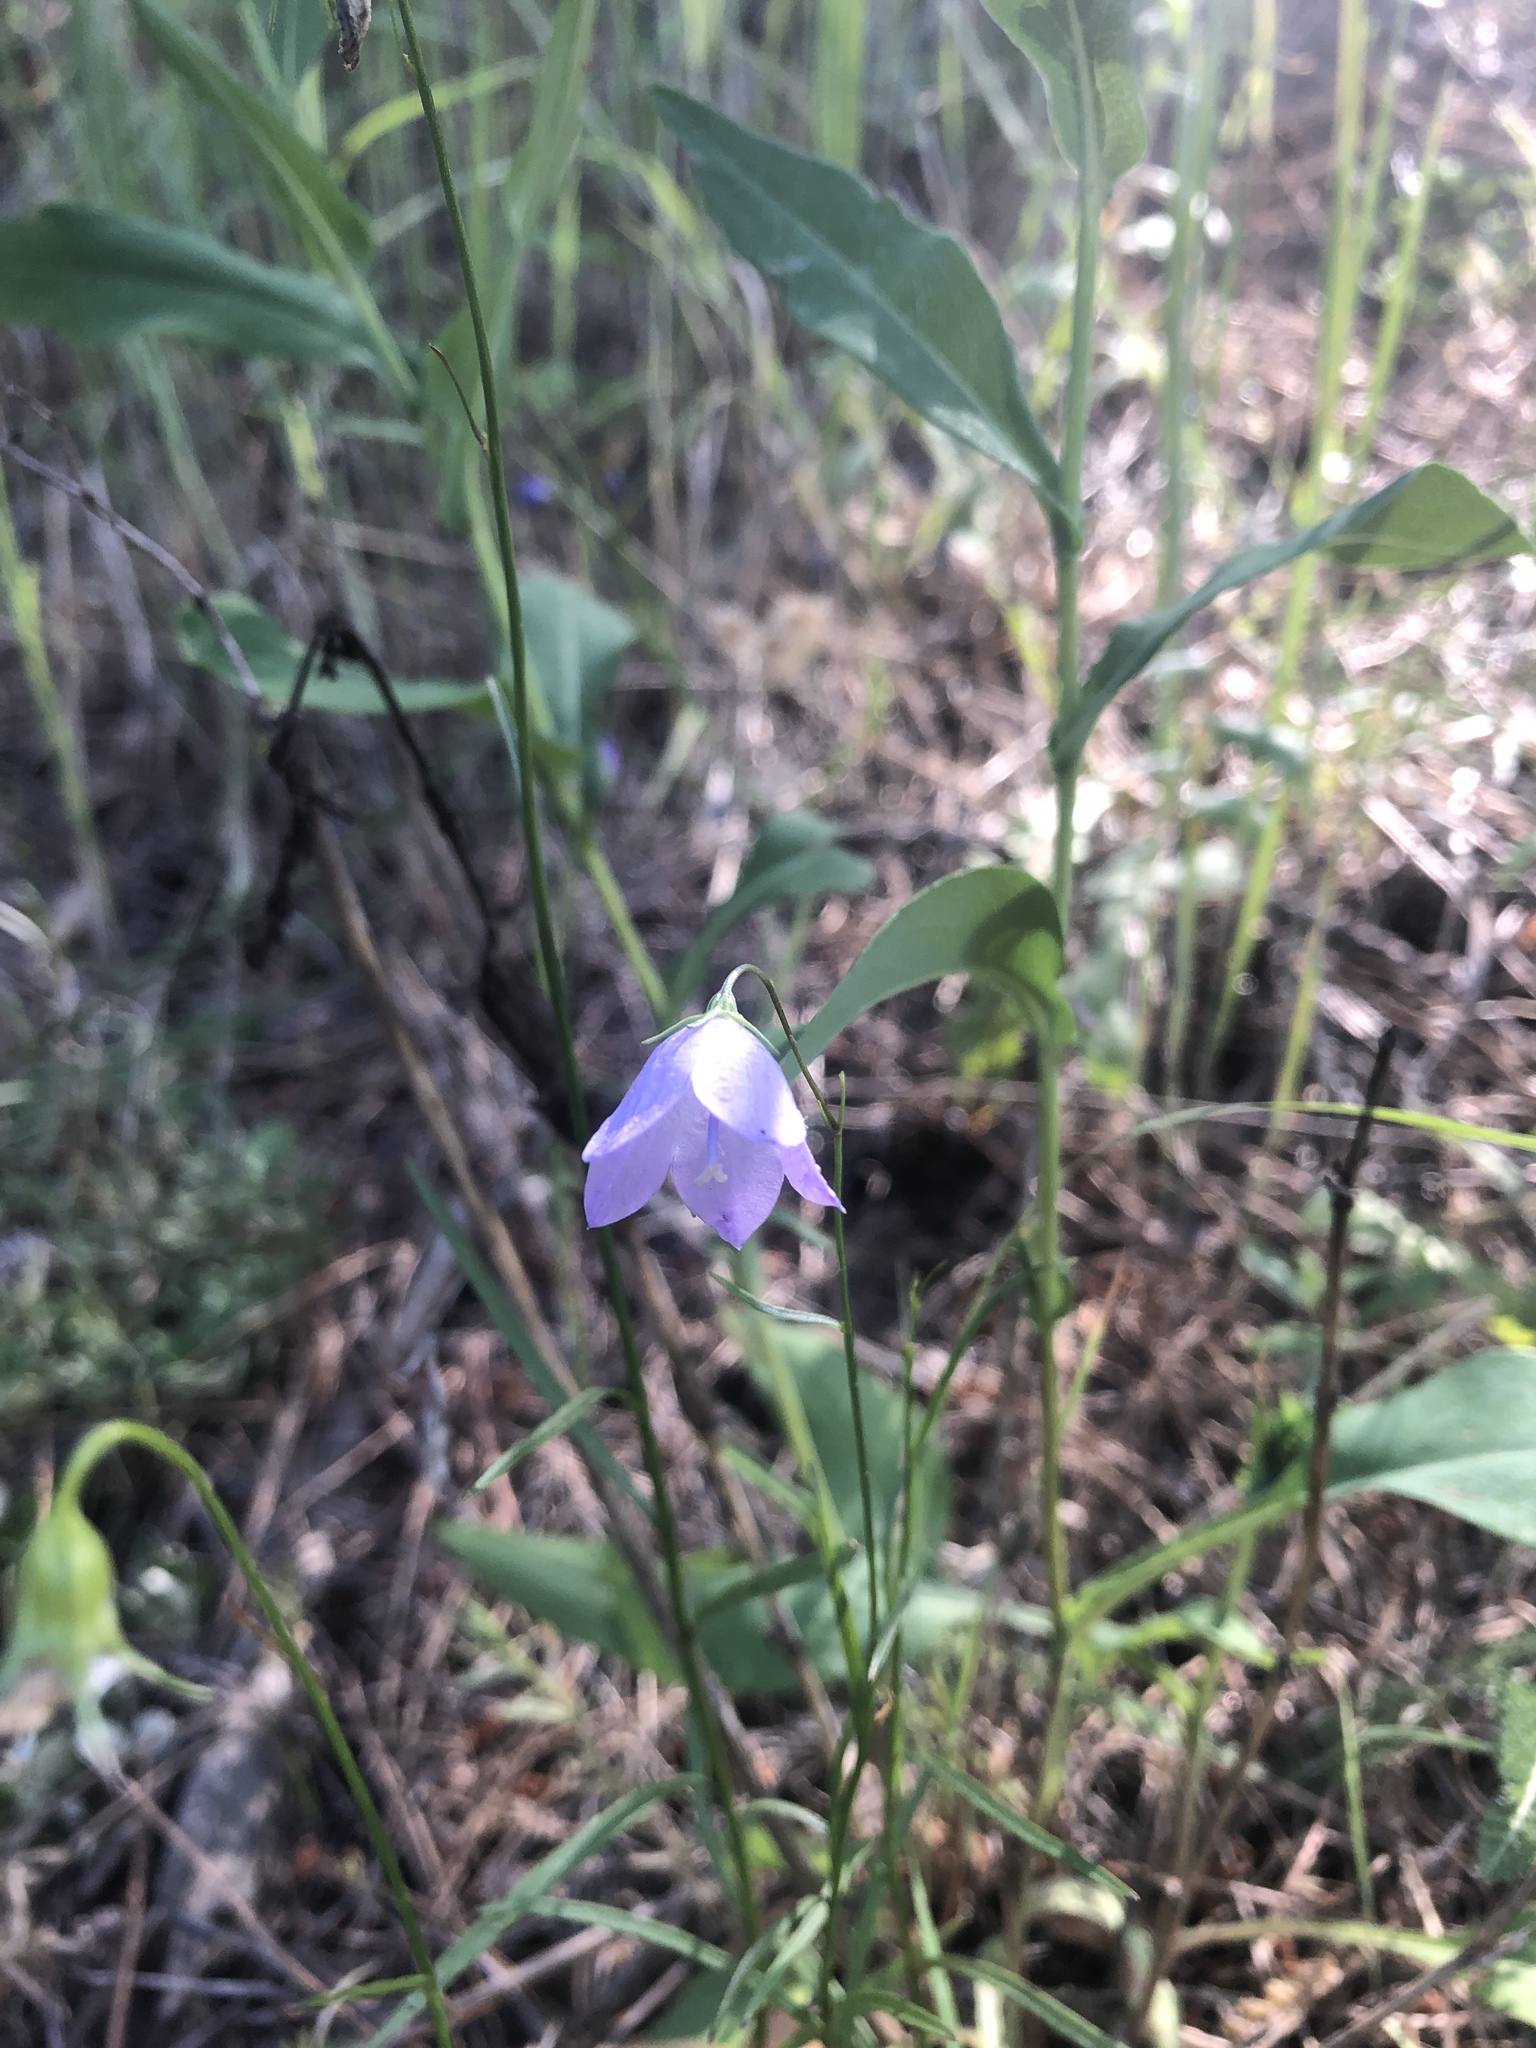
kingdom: Plantae
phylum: Tracheophyta
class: Magnoliopsida
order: Asterales
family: Campanulaceae
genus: Campanula
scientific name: Campanula petiolata
